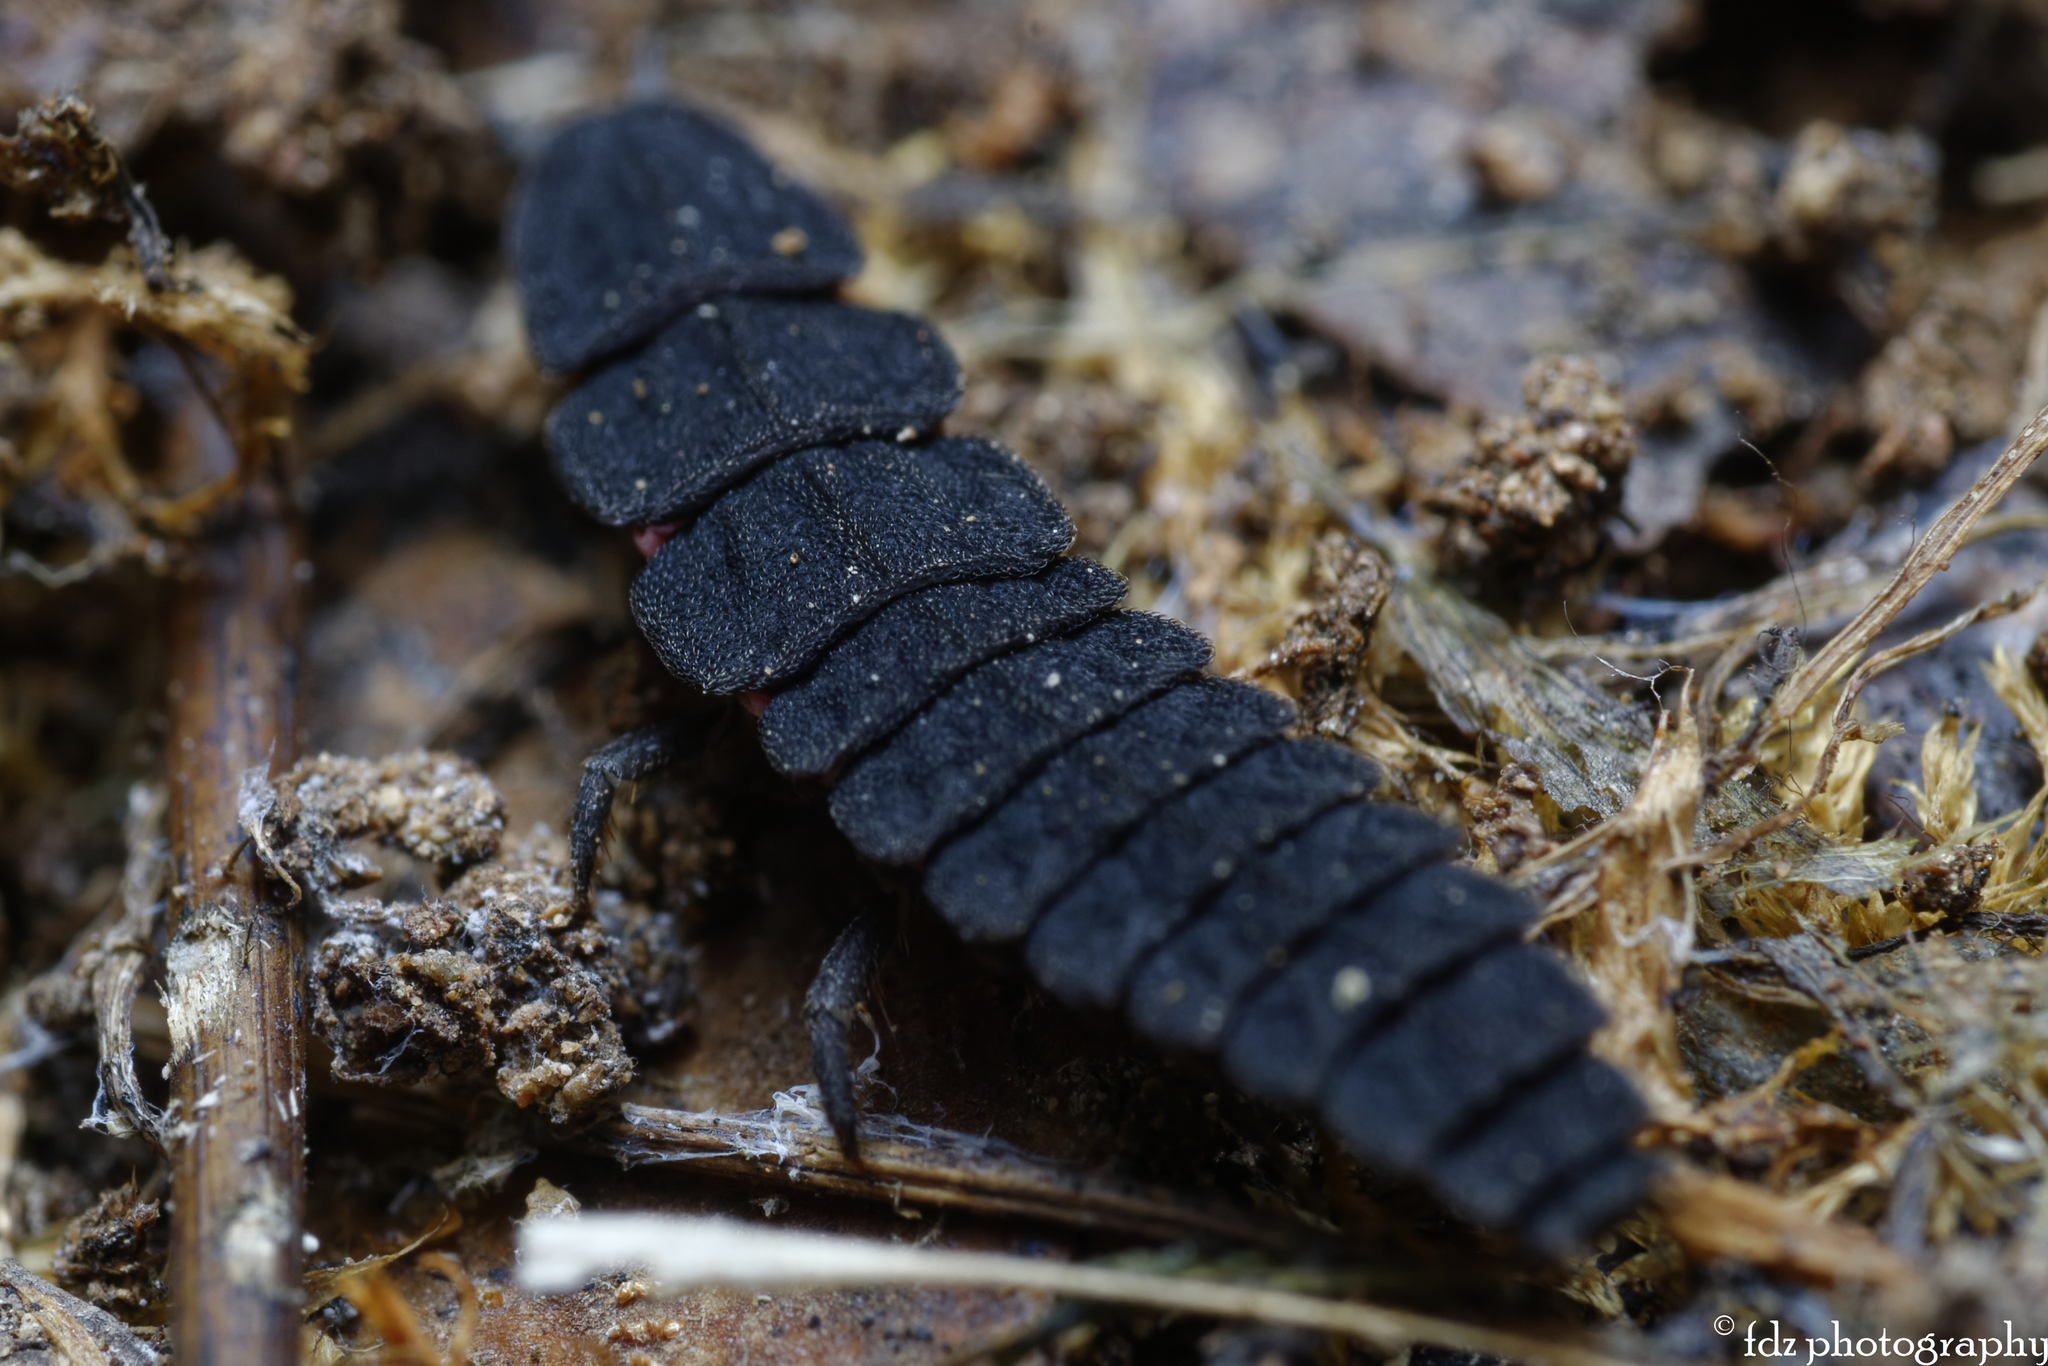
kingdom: Animalia
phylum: Arthropoda
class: Insecta
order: Coleoptera
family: Lampyridae
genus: Nyctophila
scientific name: Nyctophila reichii
